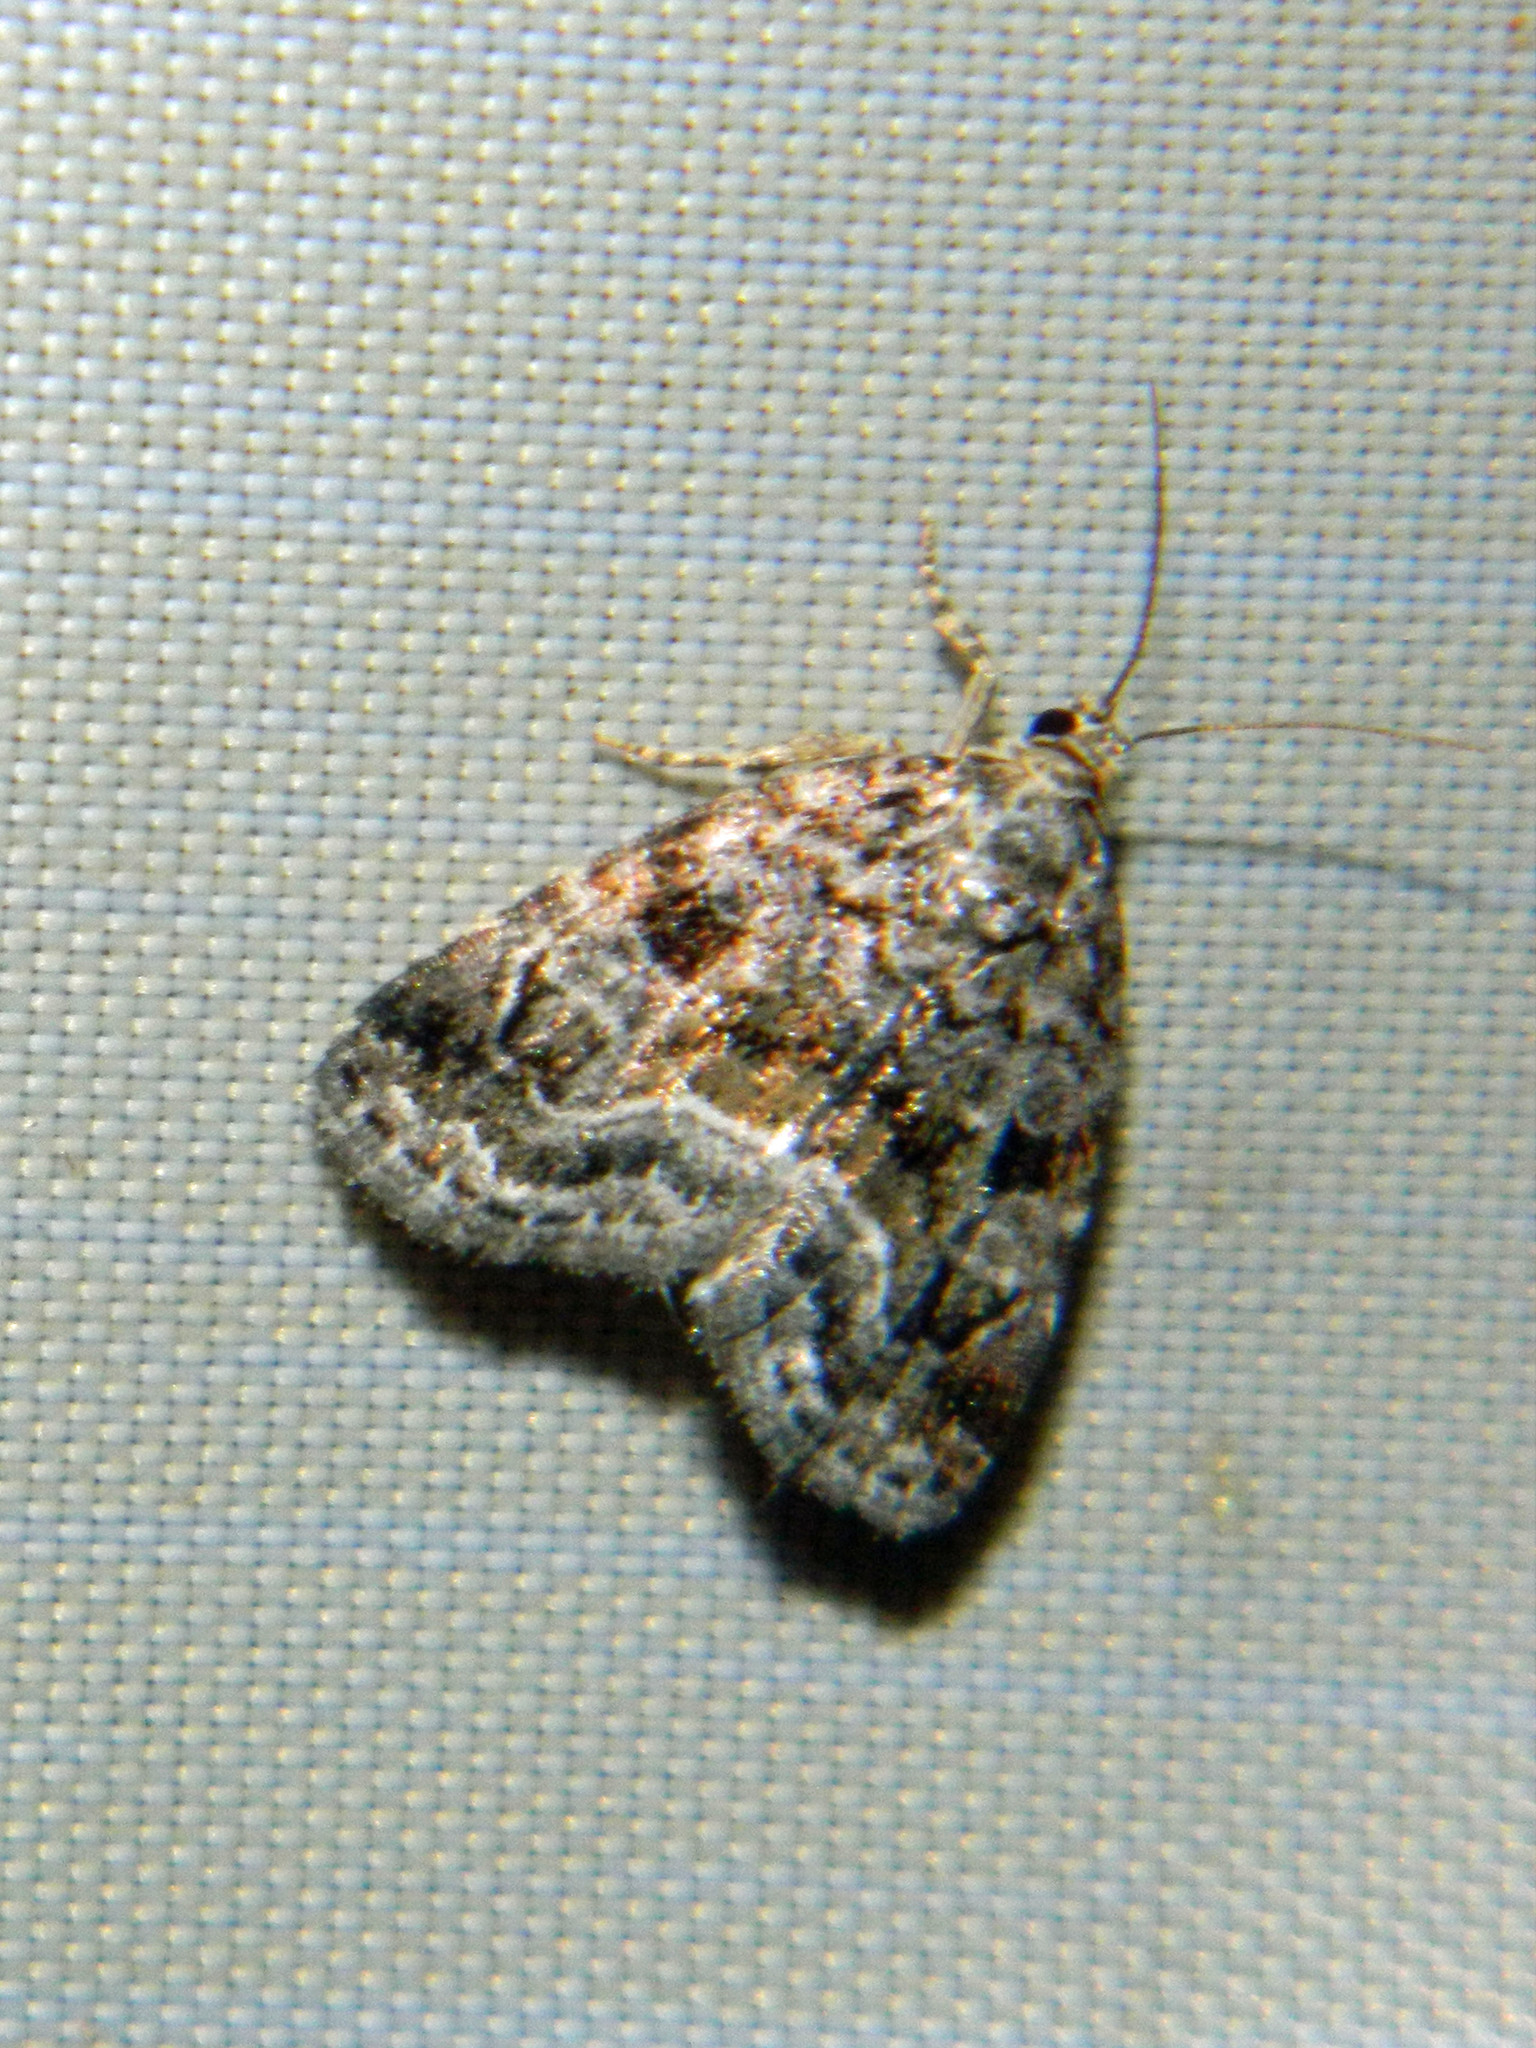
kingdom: Animalia
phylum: Arthropoda
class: Insecta
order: Lepidoptera
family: Noctuidae
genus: Protodeltote
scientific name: Protodeltote muscosula
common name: Large mossy glyph
